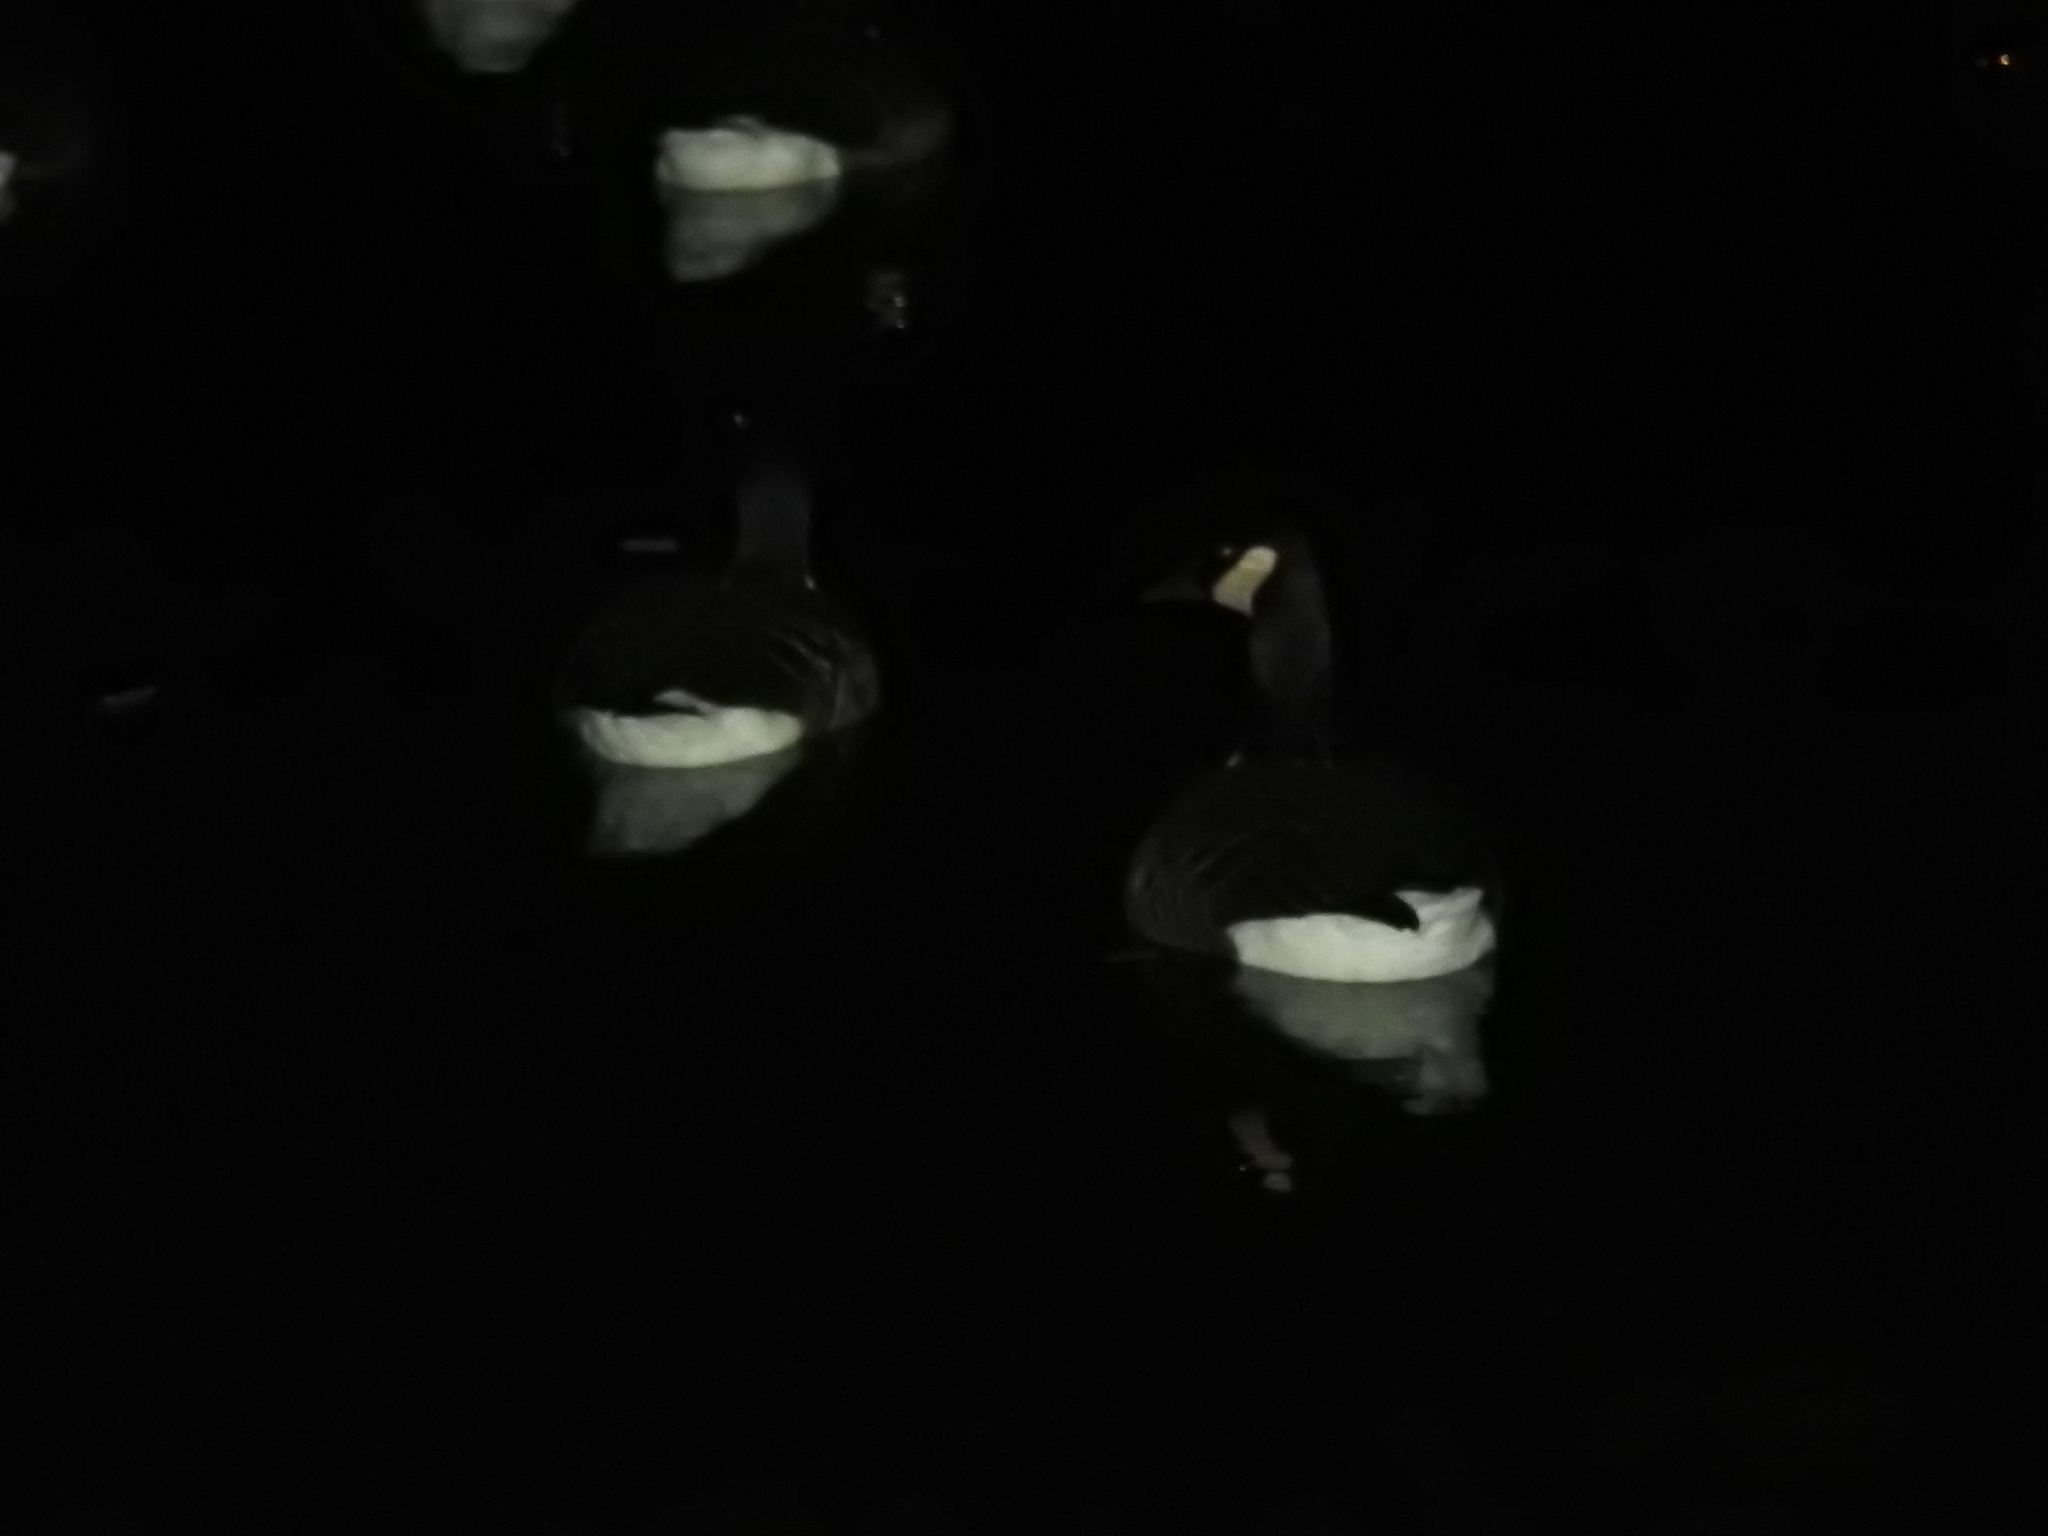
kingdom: Animalia
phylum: Chordata
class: Aves
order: Anseriformes
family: Anatidae
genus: Branta
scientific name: Branta canadensis
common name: Canada goose
